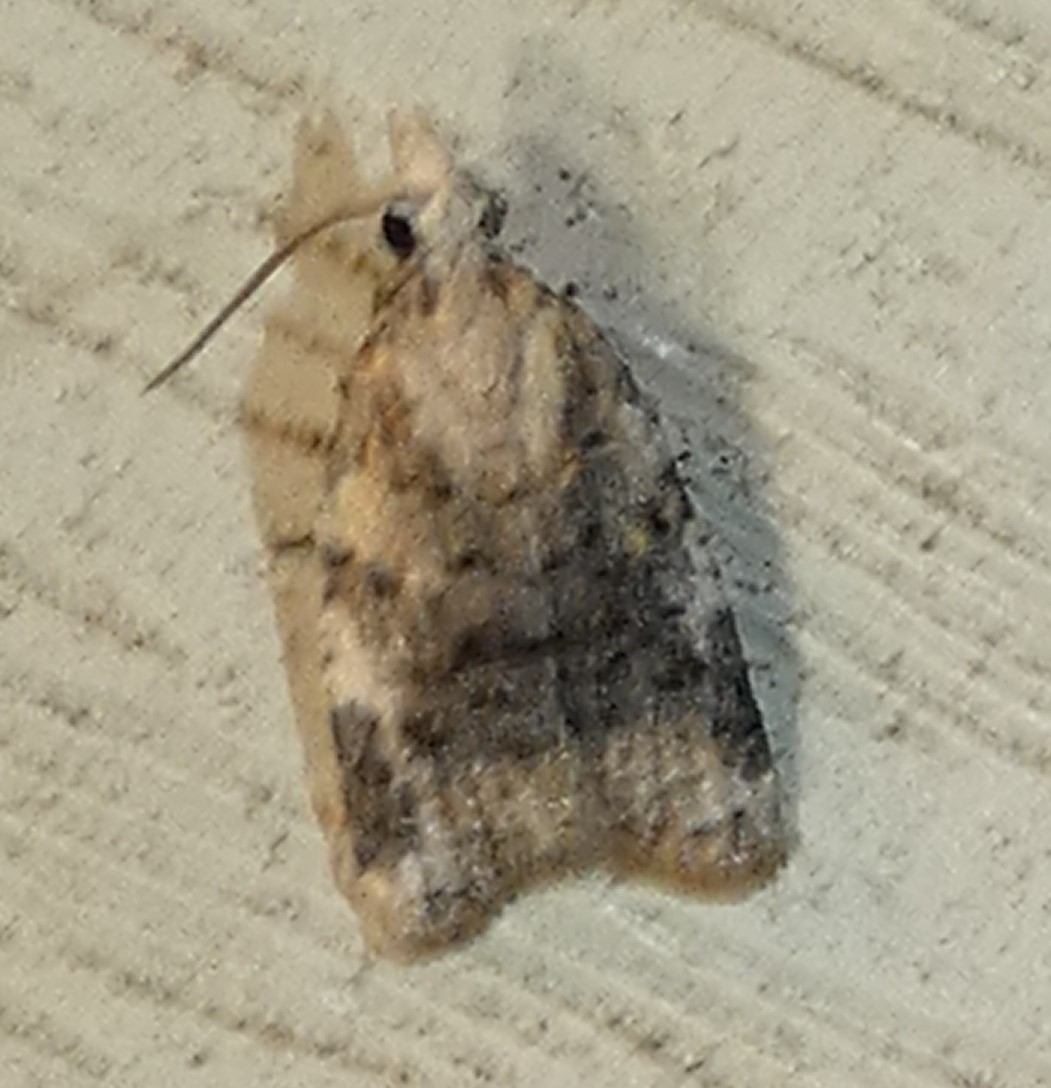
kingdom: Animalia
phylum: Arthropoda
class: Insecta
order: Lepidoptera
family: Tortricidae
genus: Platynota
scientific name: Platynota exasperatana
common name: Exasperating platynota moth
